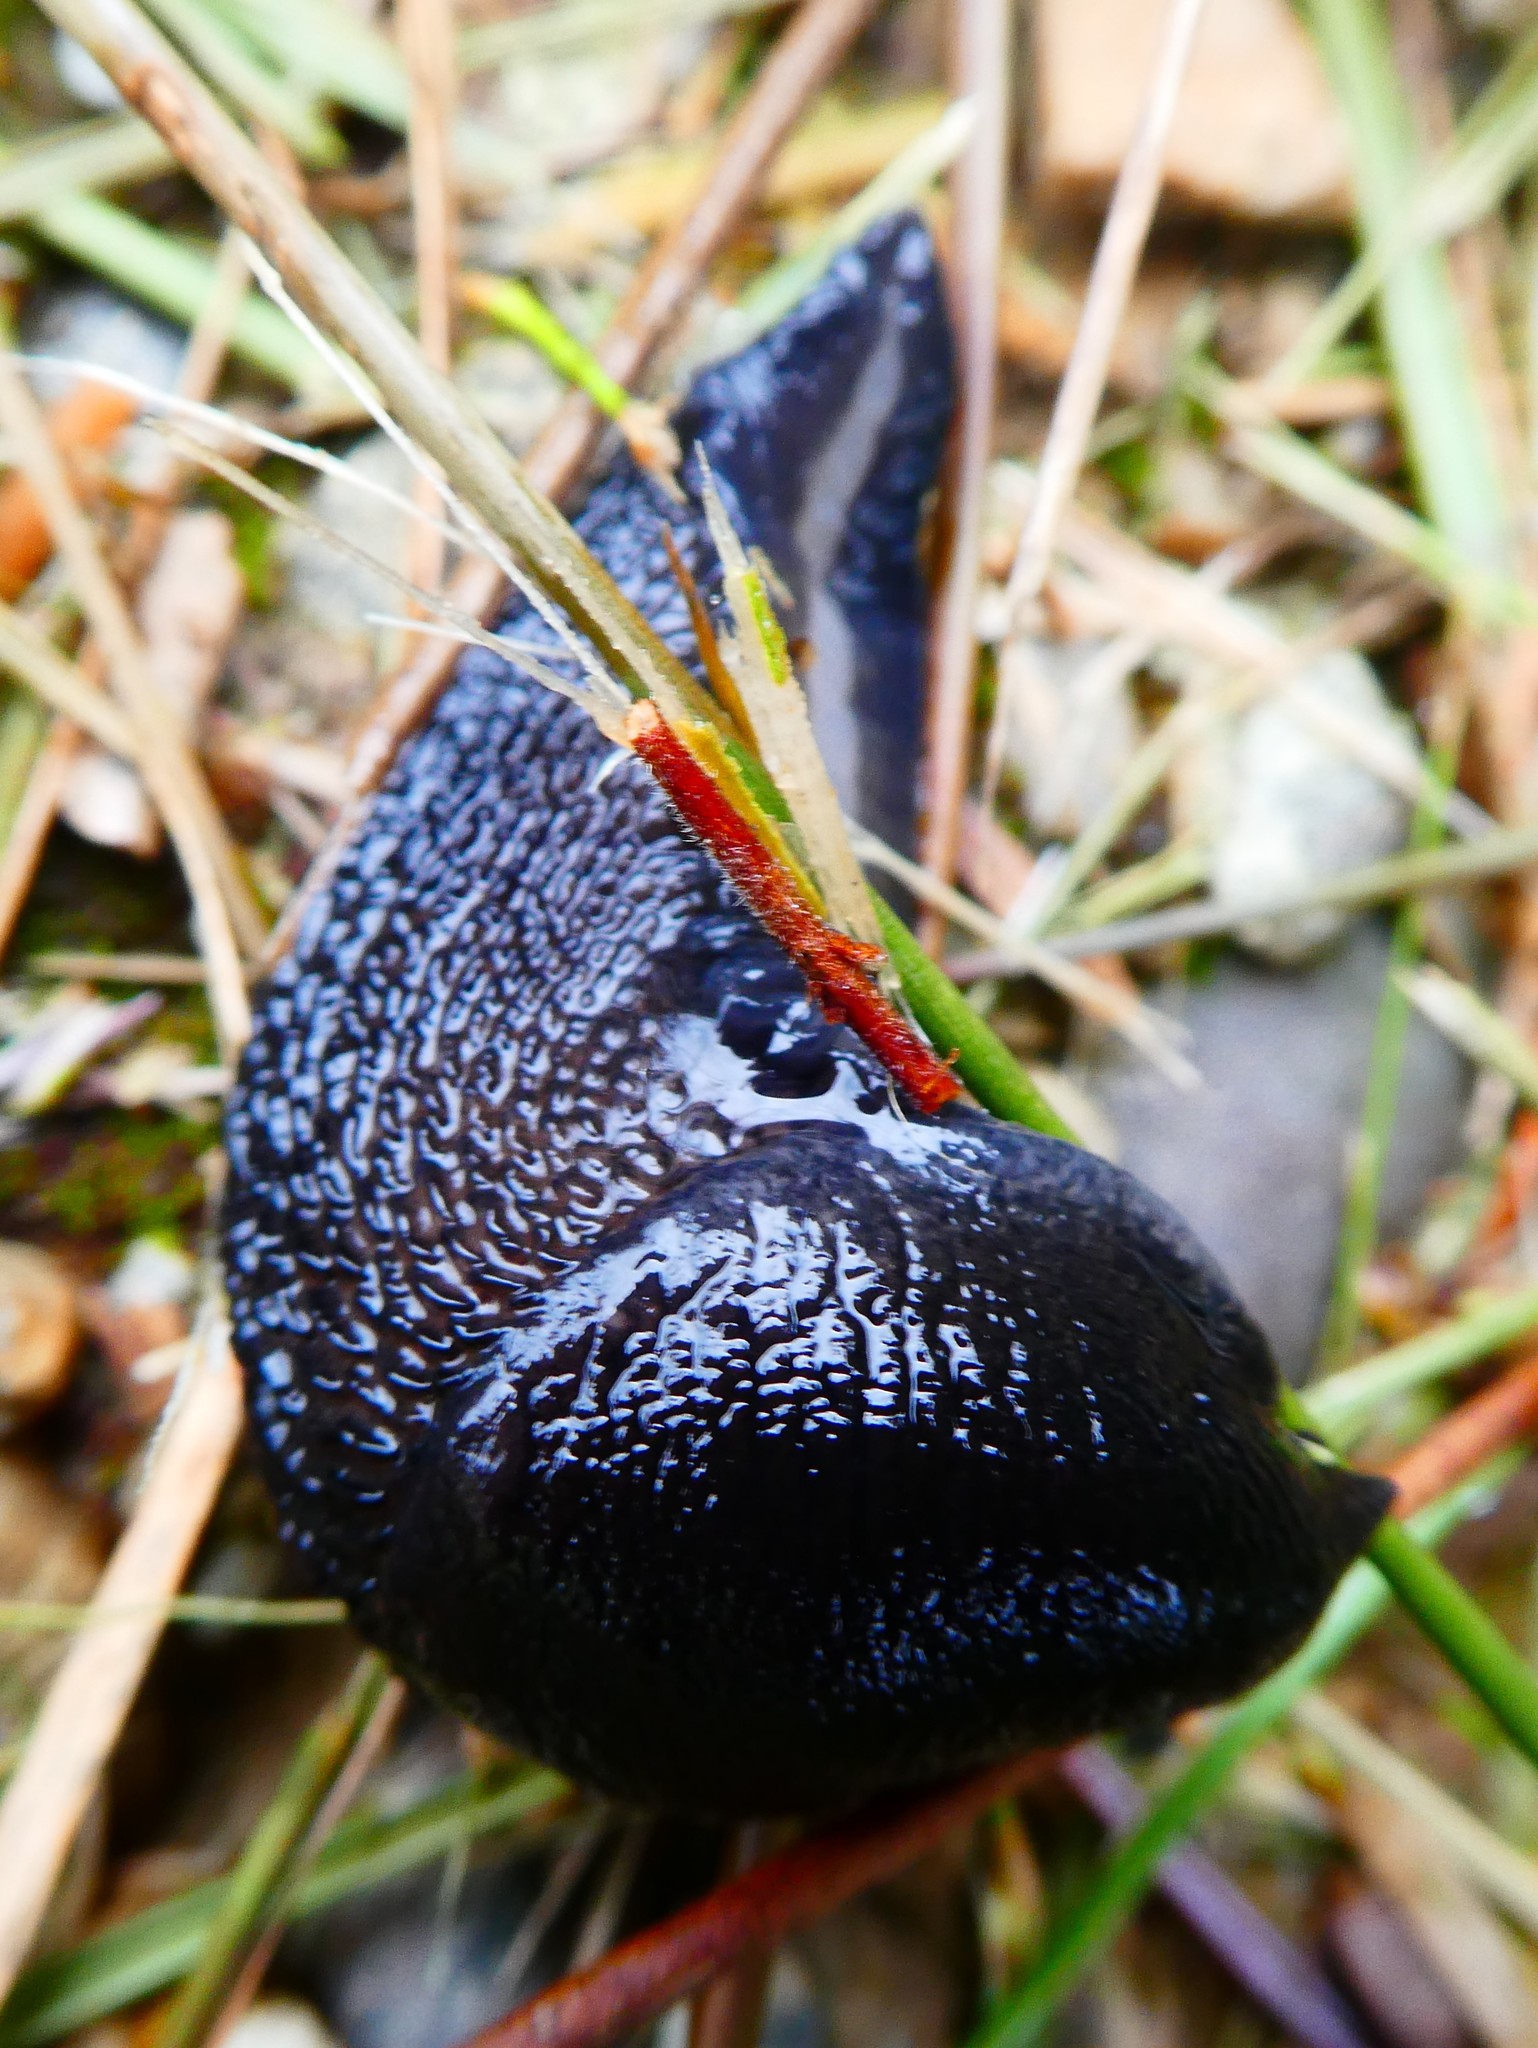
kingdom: Animalia
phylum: Mollusca
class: Gastropoda
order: Stylommatophora
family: Limacidae
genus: Limax
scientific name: Limax cinereoniger
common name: Ash-black slug
